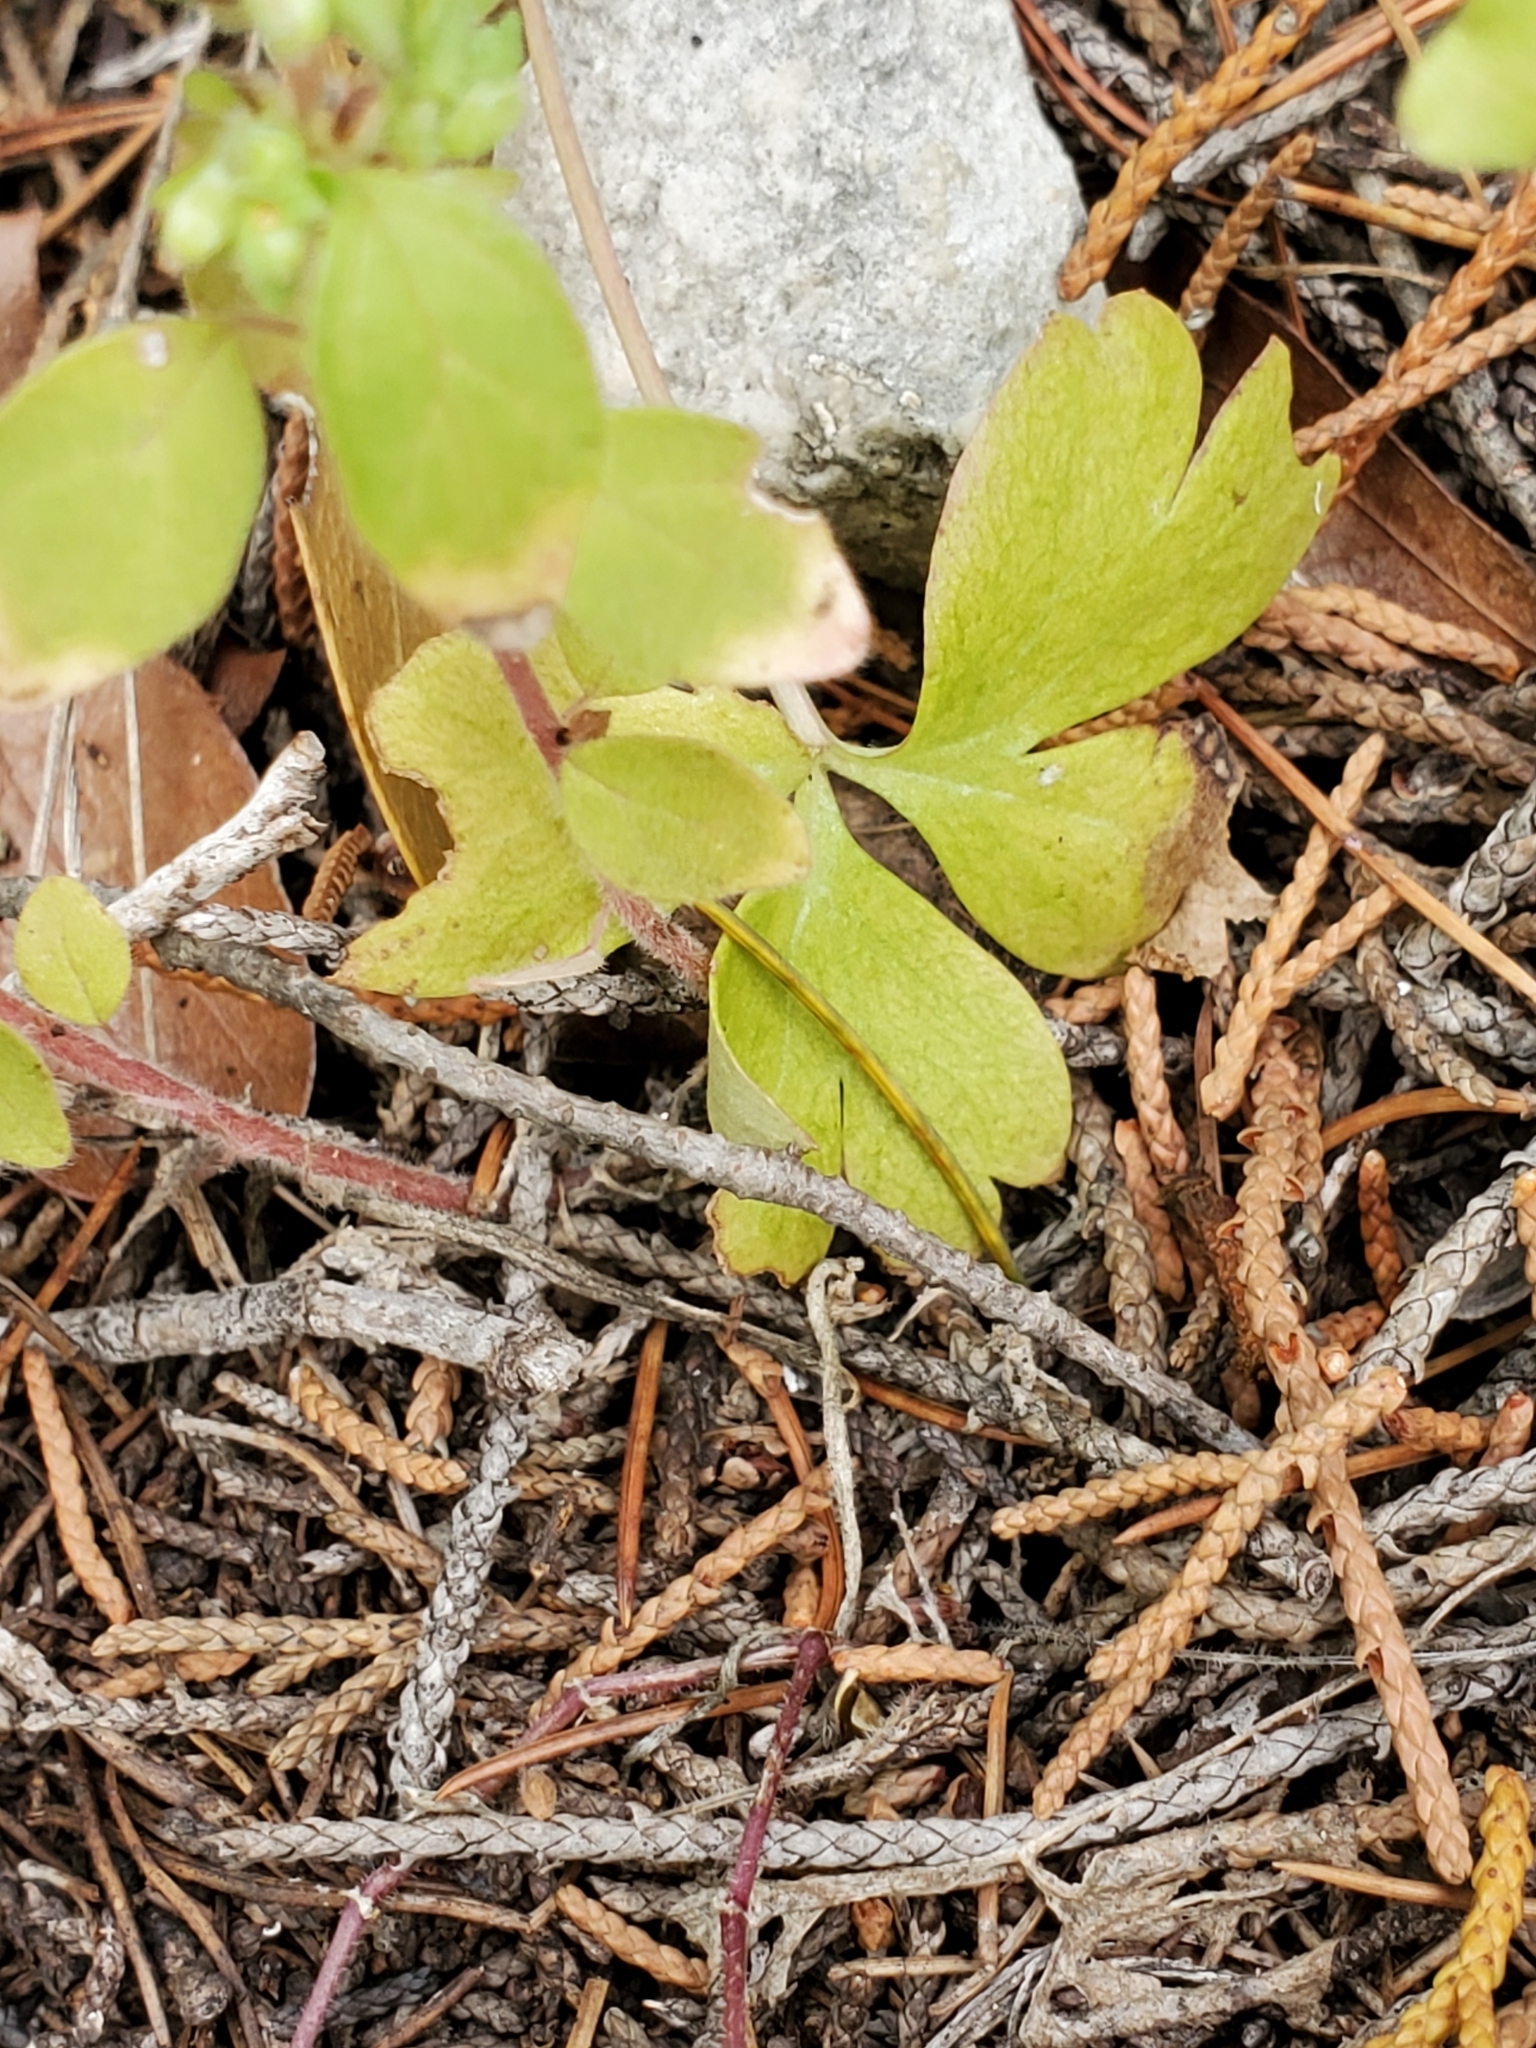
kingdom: Plantae
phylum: Tracheophyta
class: Magnoliopsida
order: Ranunculales
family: Ranunculaceae
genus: Anemone
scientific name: Anemone edwardsiana
